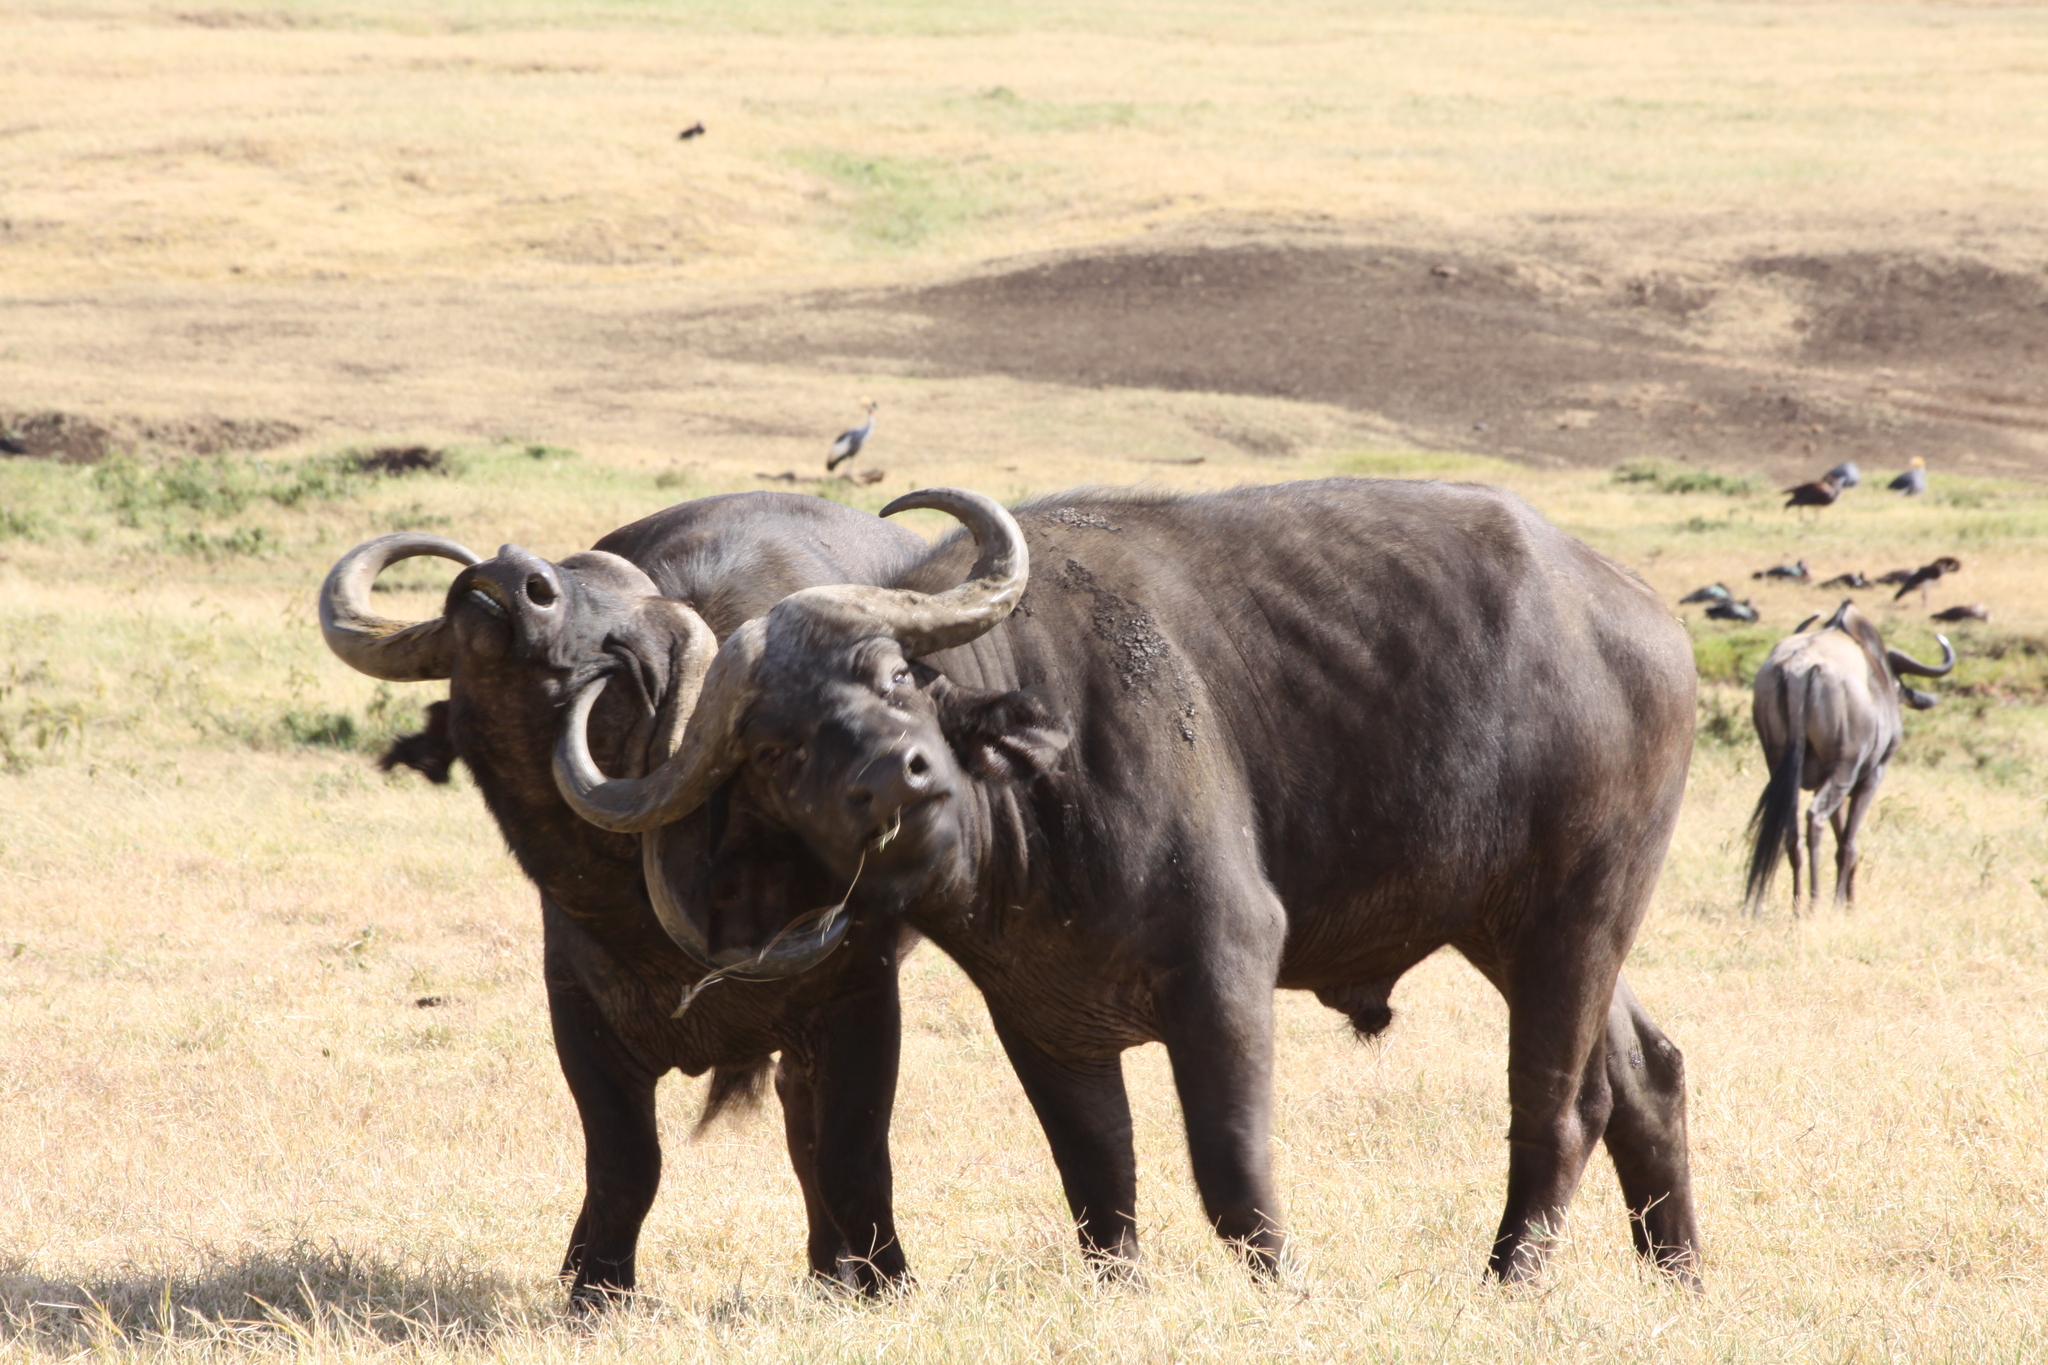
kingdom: Animalia
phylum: Chordata
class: Mammalia
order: Artiodactyla
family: Bovidae
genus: Syncerus
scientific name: Syncerus caffer
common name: African buffalo
